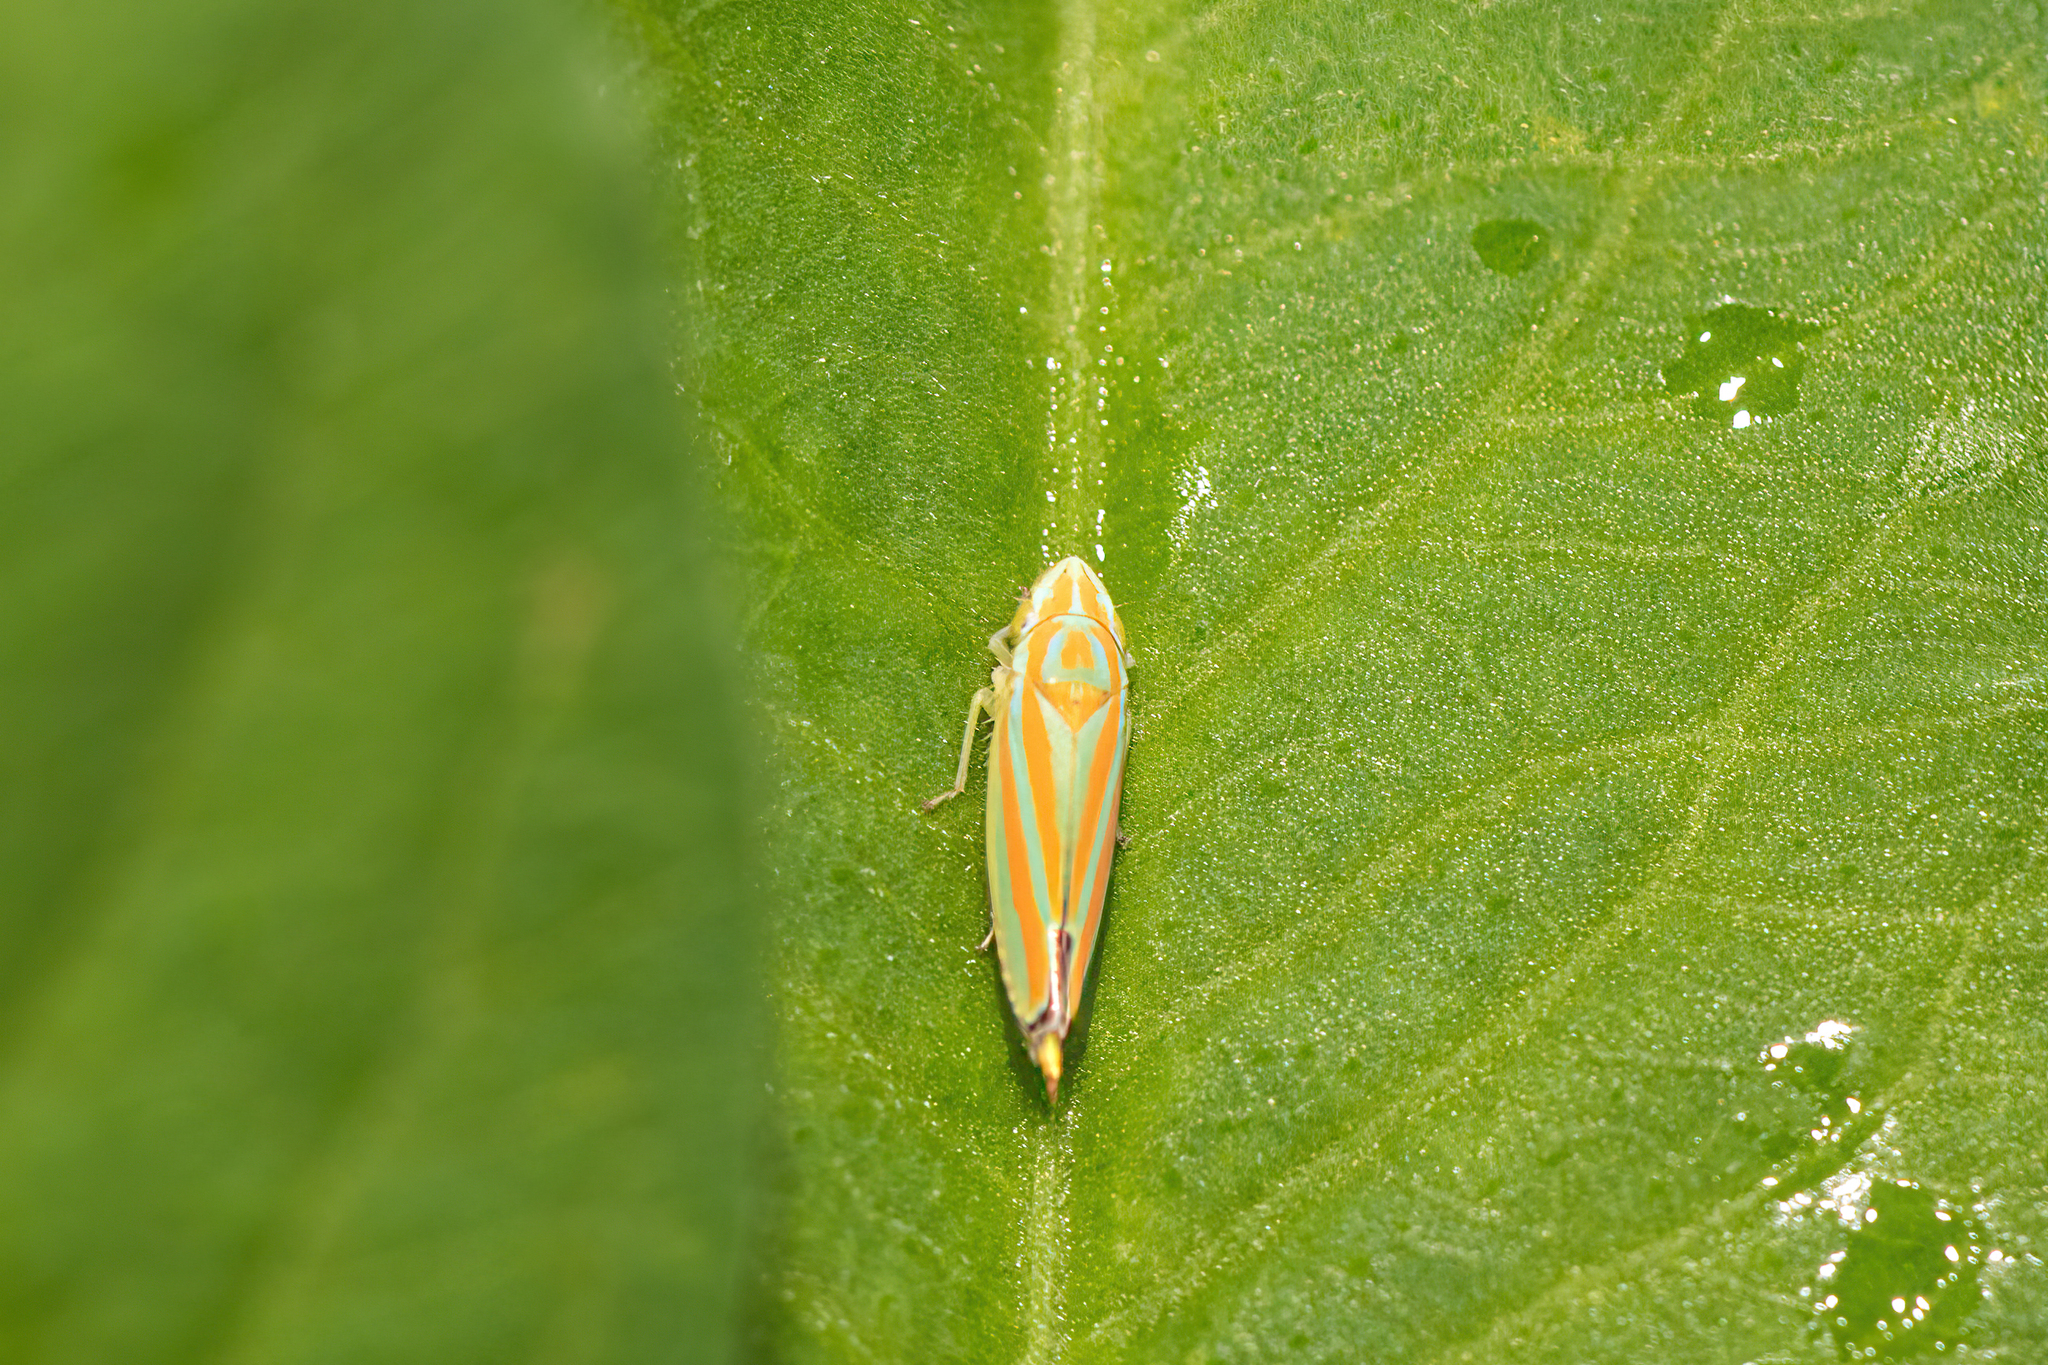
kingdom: Animalia
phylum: Arthropoda
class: Insecta
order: Hemiptera
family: Cicadellidae
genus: Graphocephala
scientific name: Graphocephala versuta
